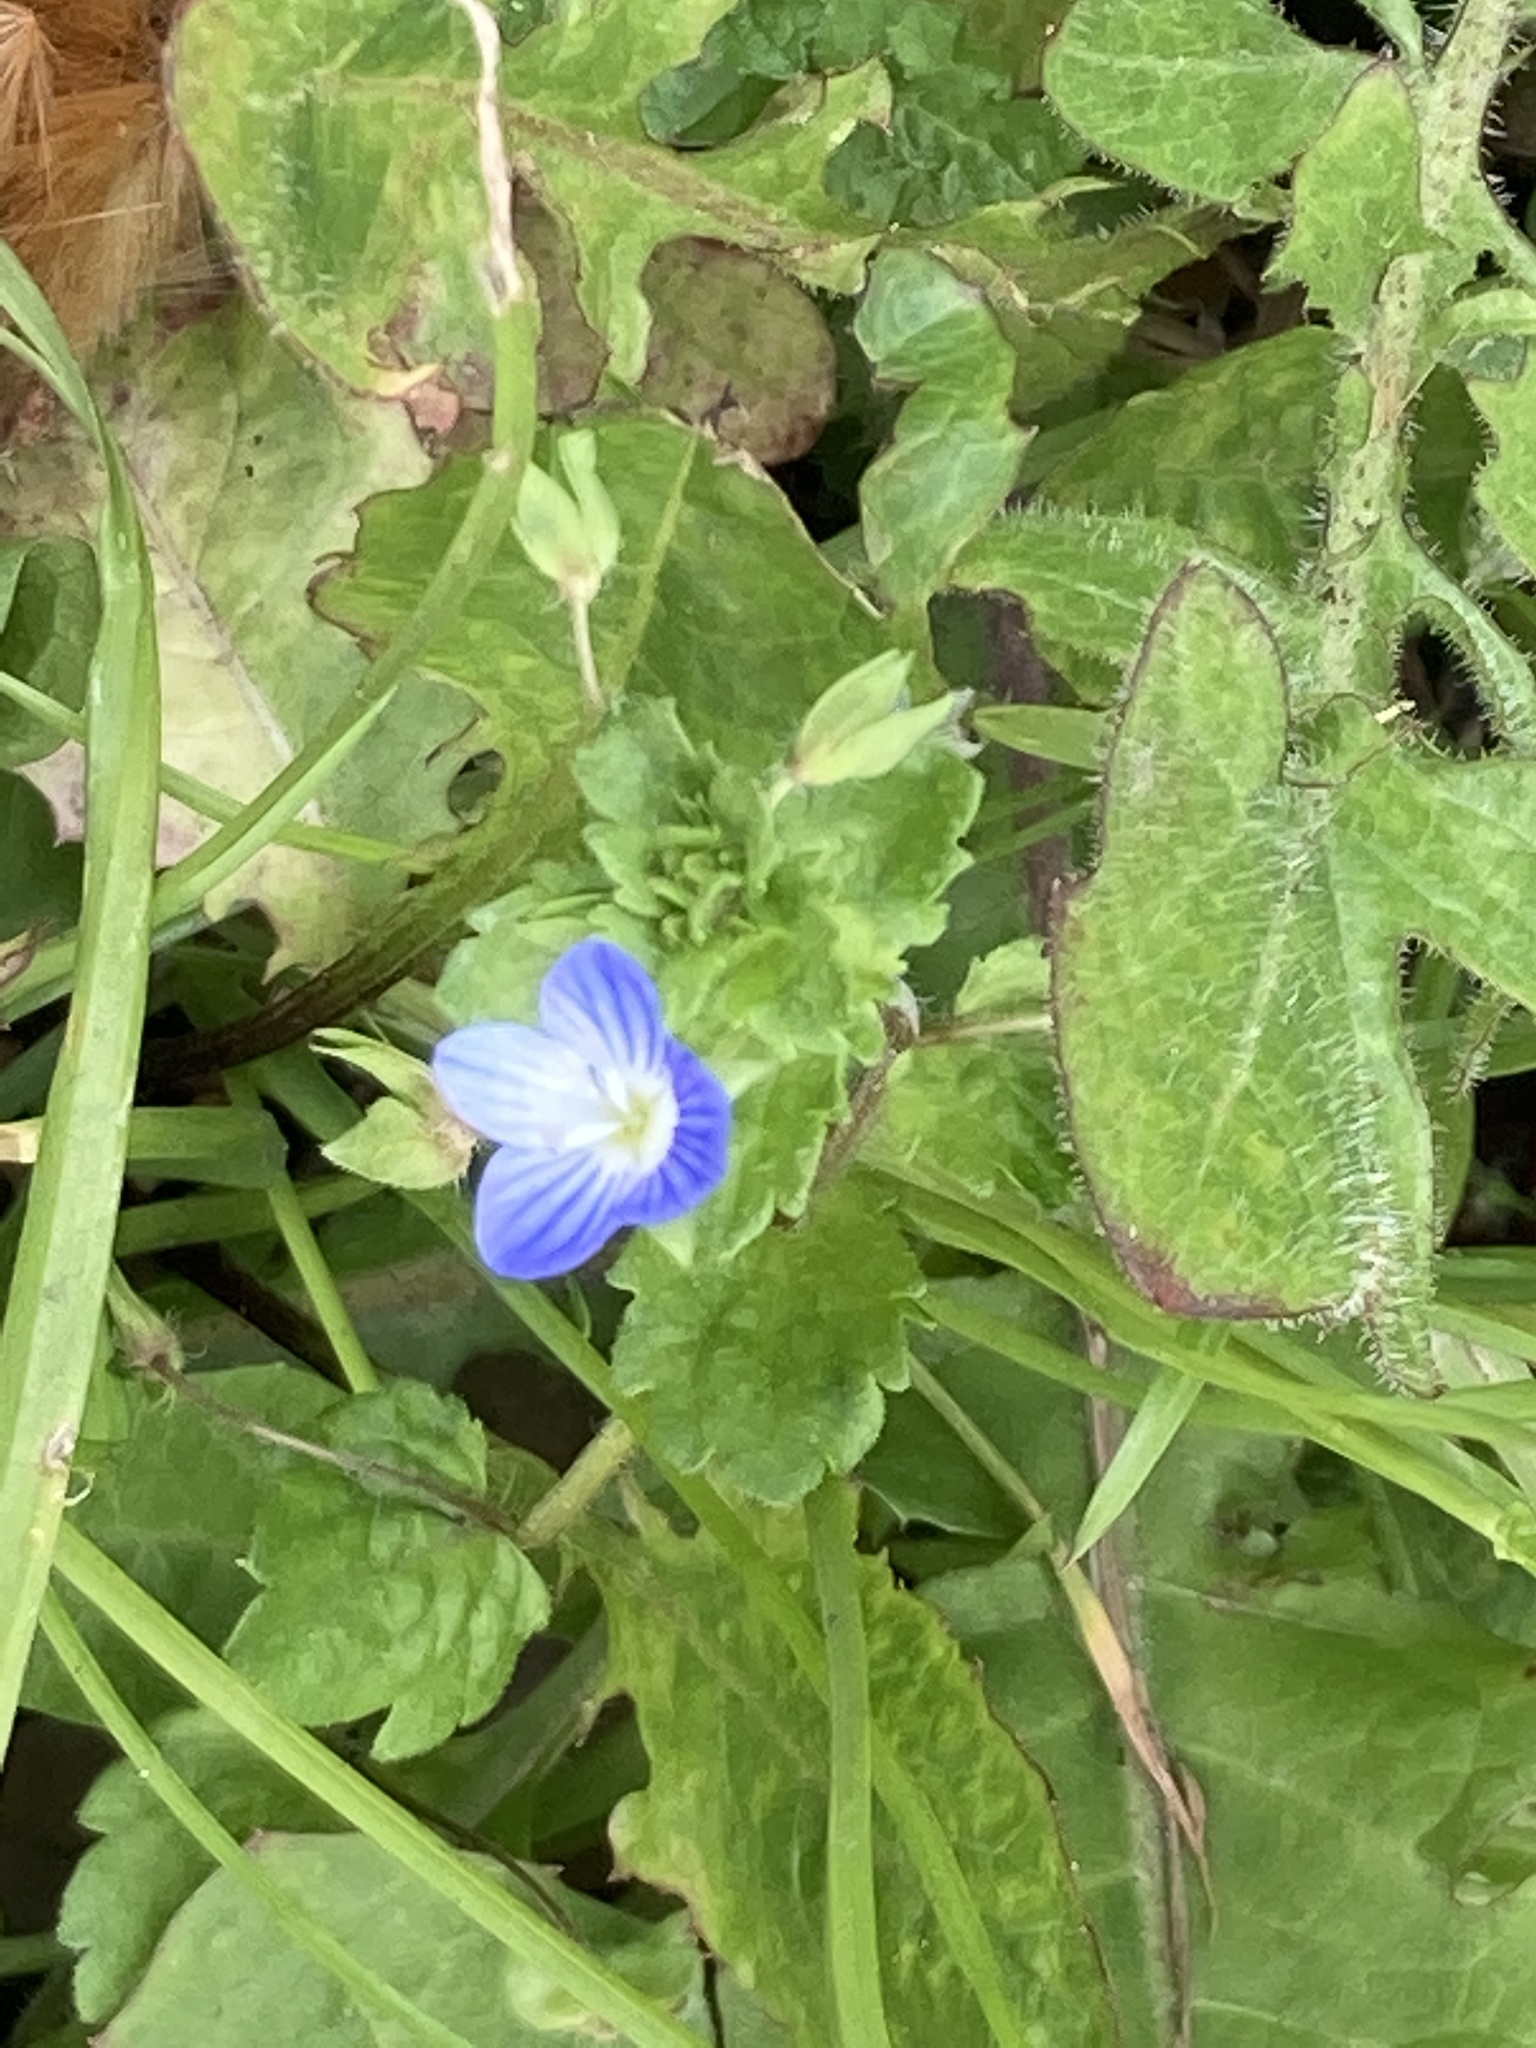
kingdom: Plantae
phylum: Tracheophyta
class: Magnoliopsida
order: Lamiales
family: Plantaginaceae
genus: Veronica
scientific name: Veronica persica
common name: Common field-speedwell
